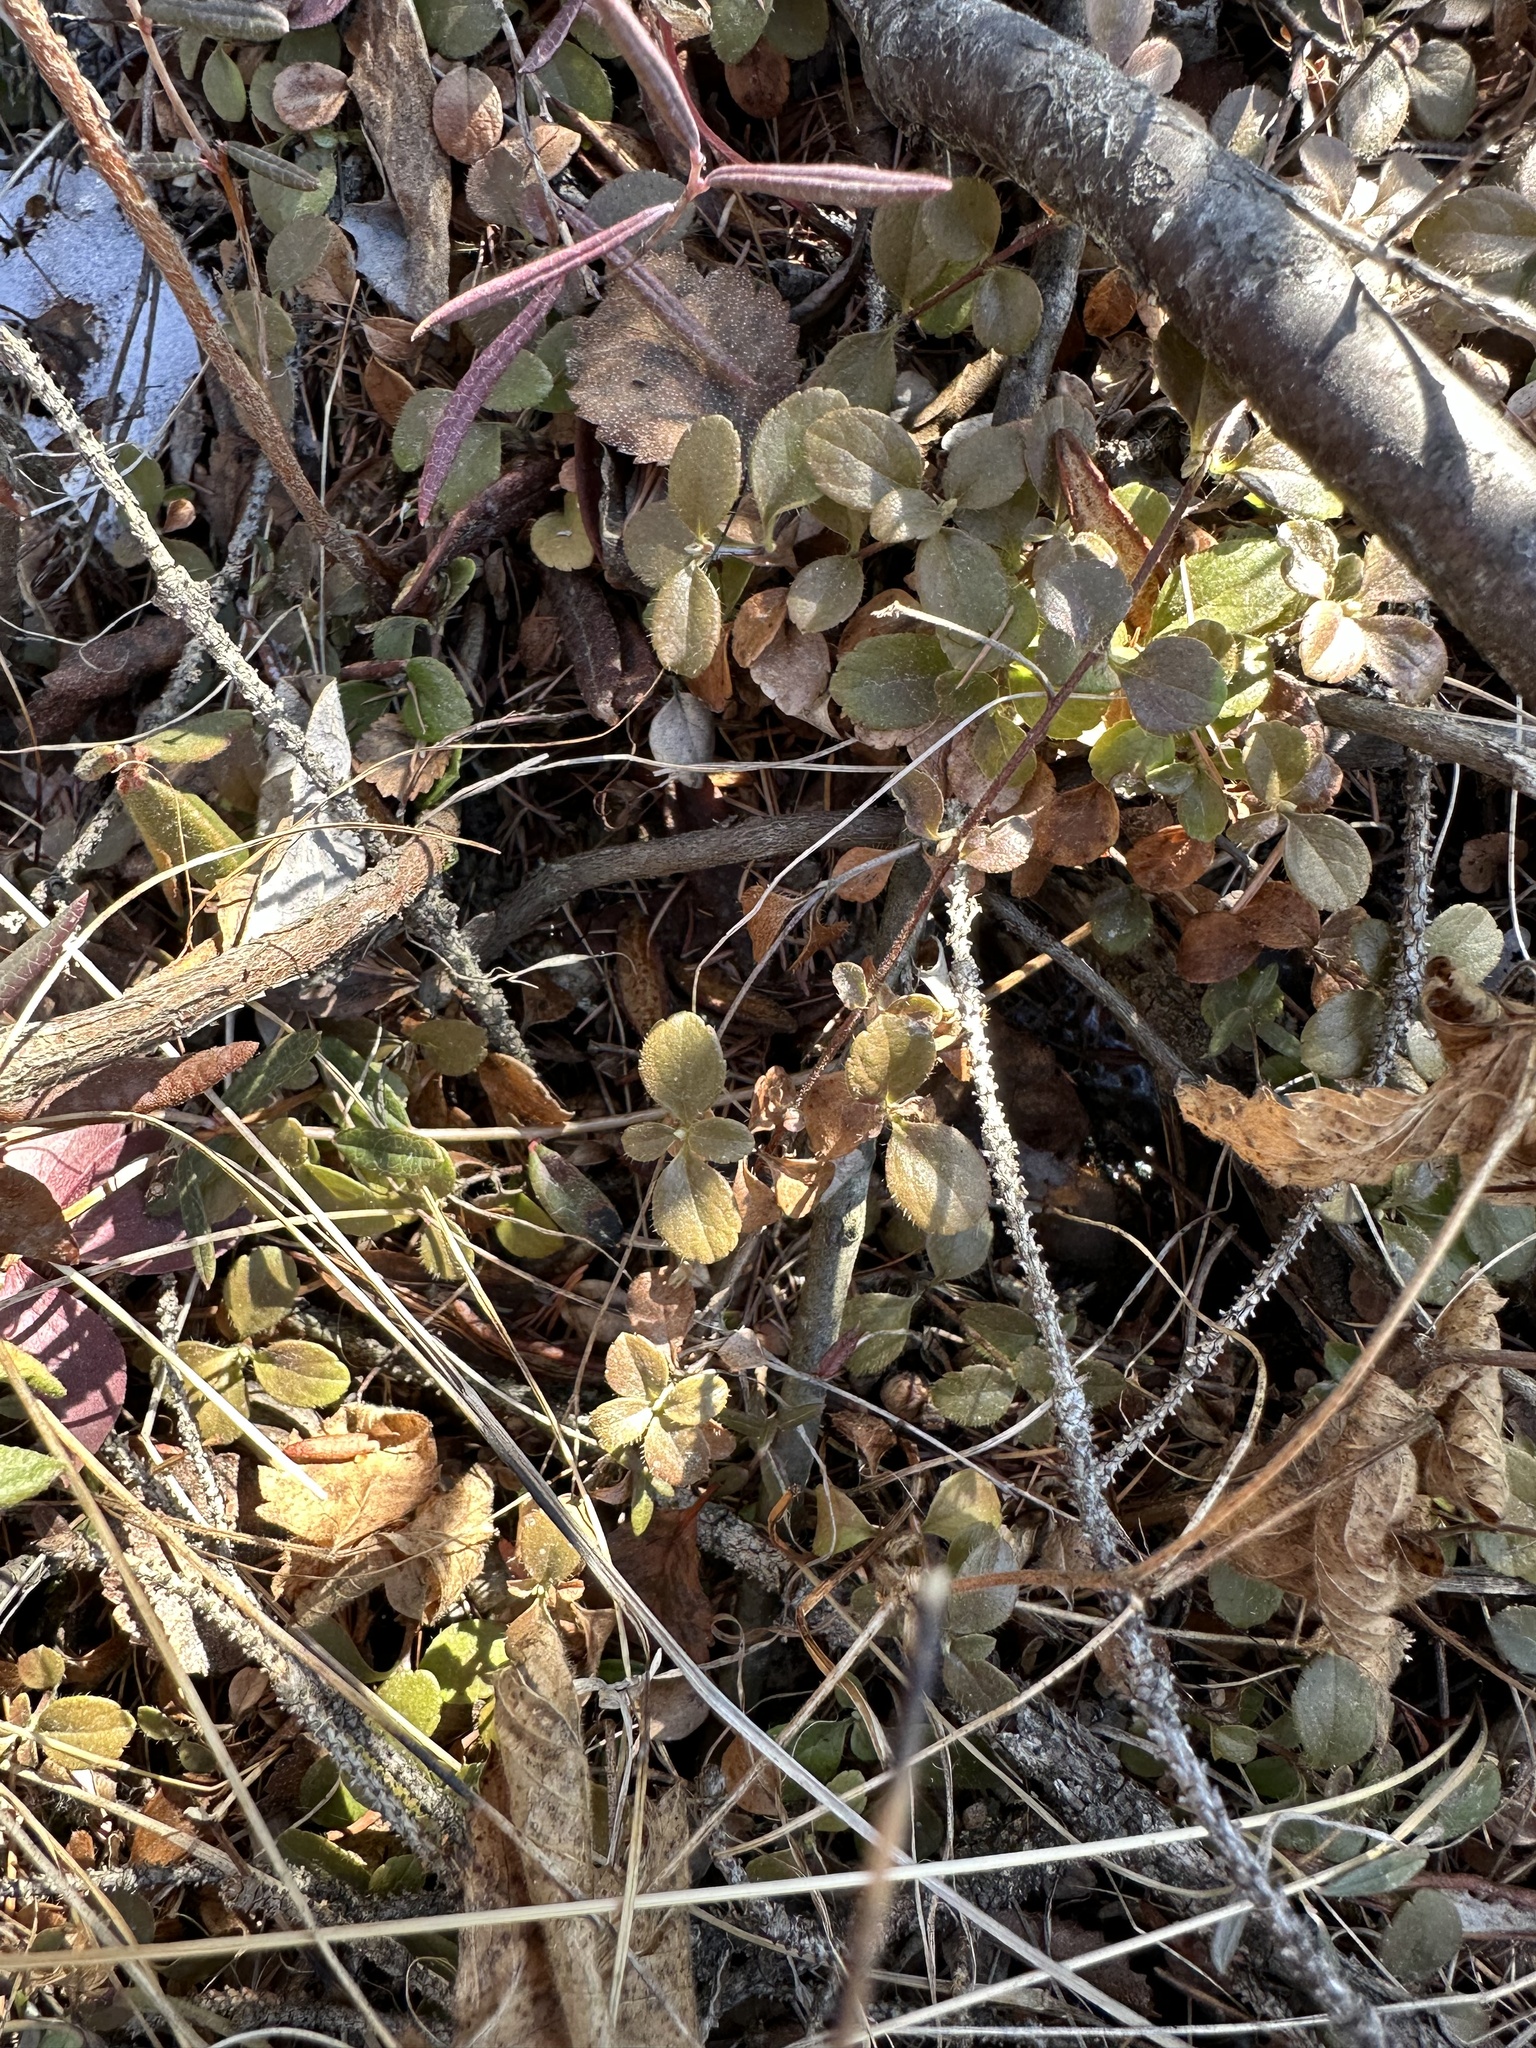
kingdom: Plantae
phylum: Tracheophyta
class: Magnoliopsida
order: Dipsacales
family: Caprifoliaceae
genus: Linnaea
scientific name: Linnaea borealis
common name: Twinflower
